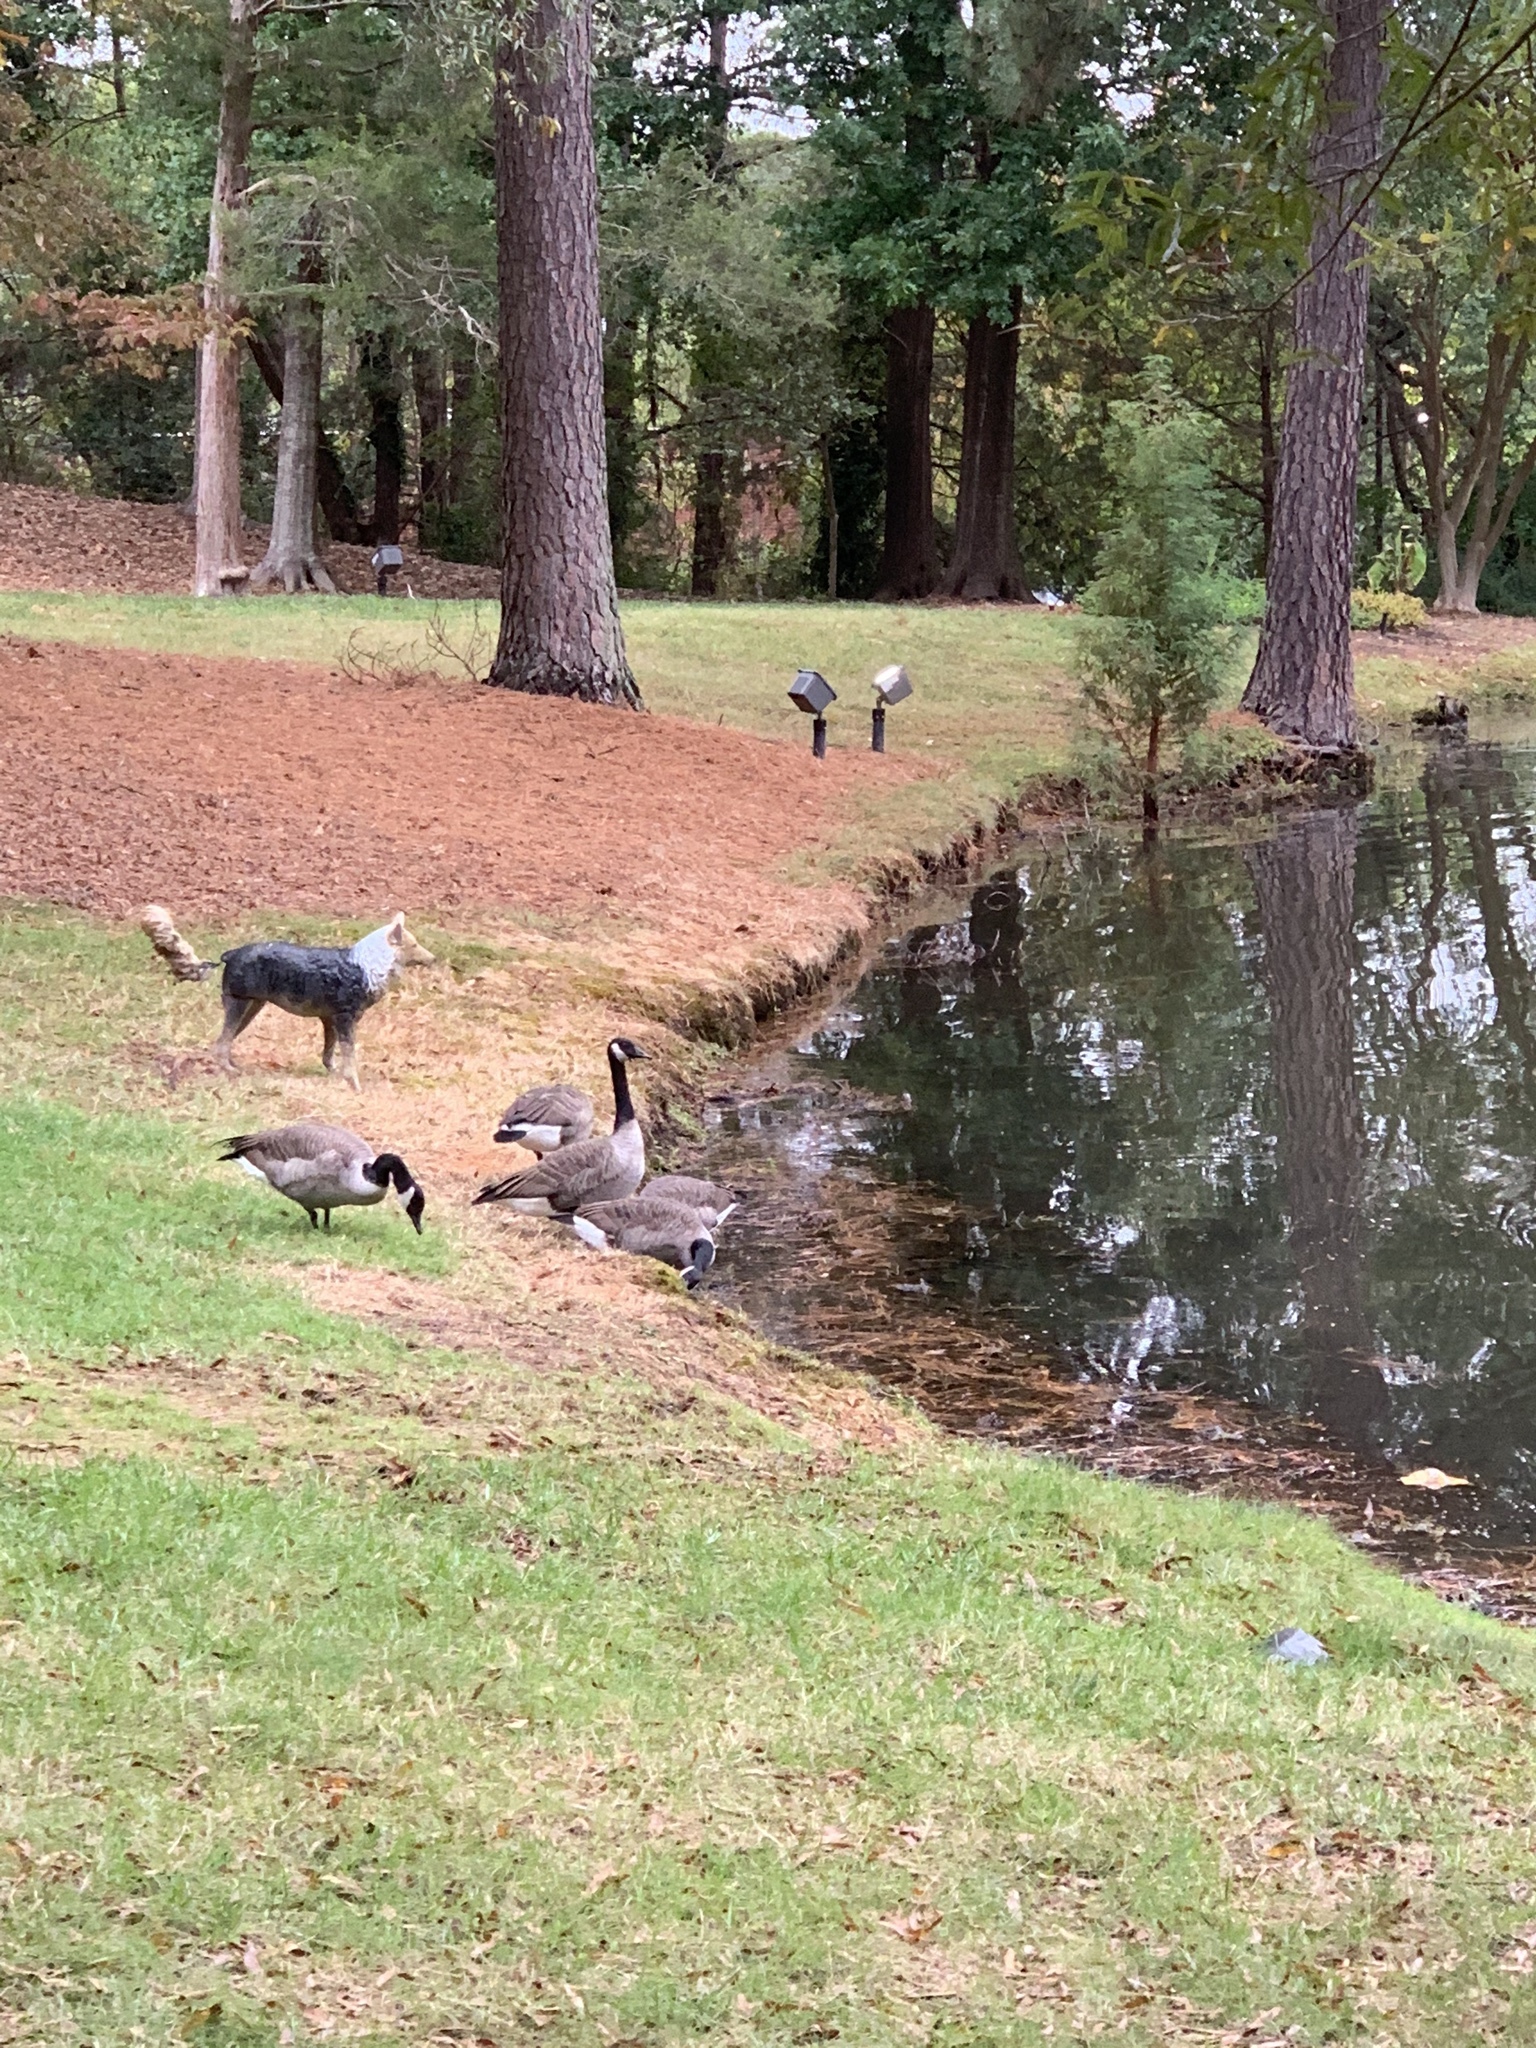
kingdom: Animalia
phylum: Chordata
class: Aves
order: Anseriformes
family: Anatidae
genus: Branta
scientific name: Branta canadensis
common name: Canada goose
